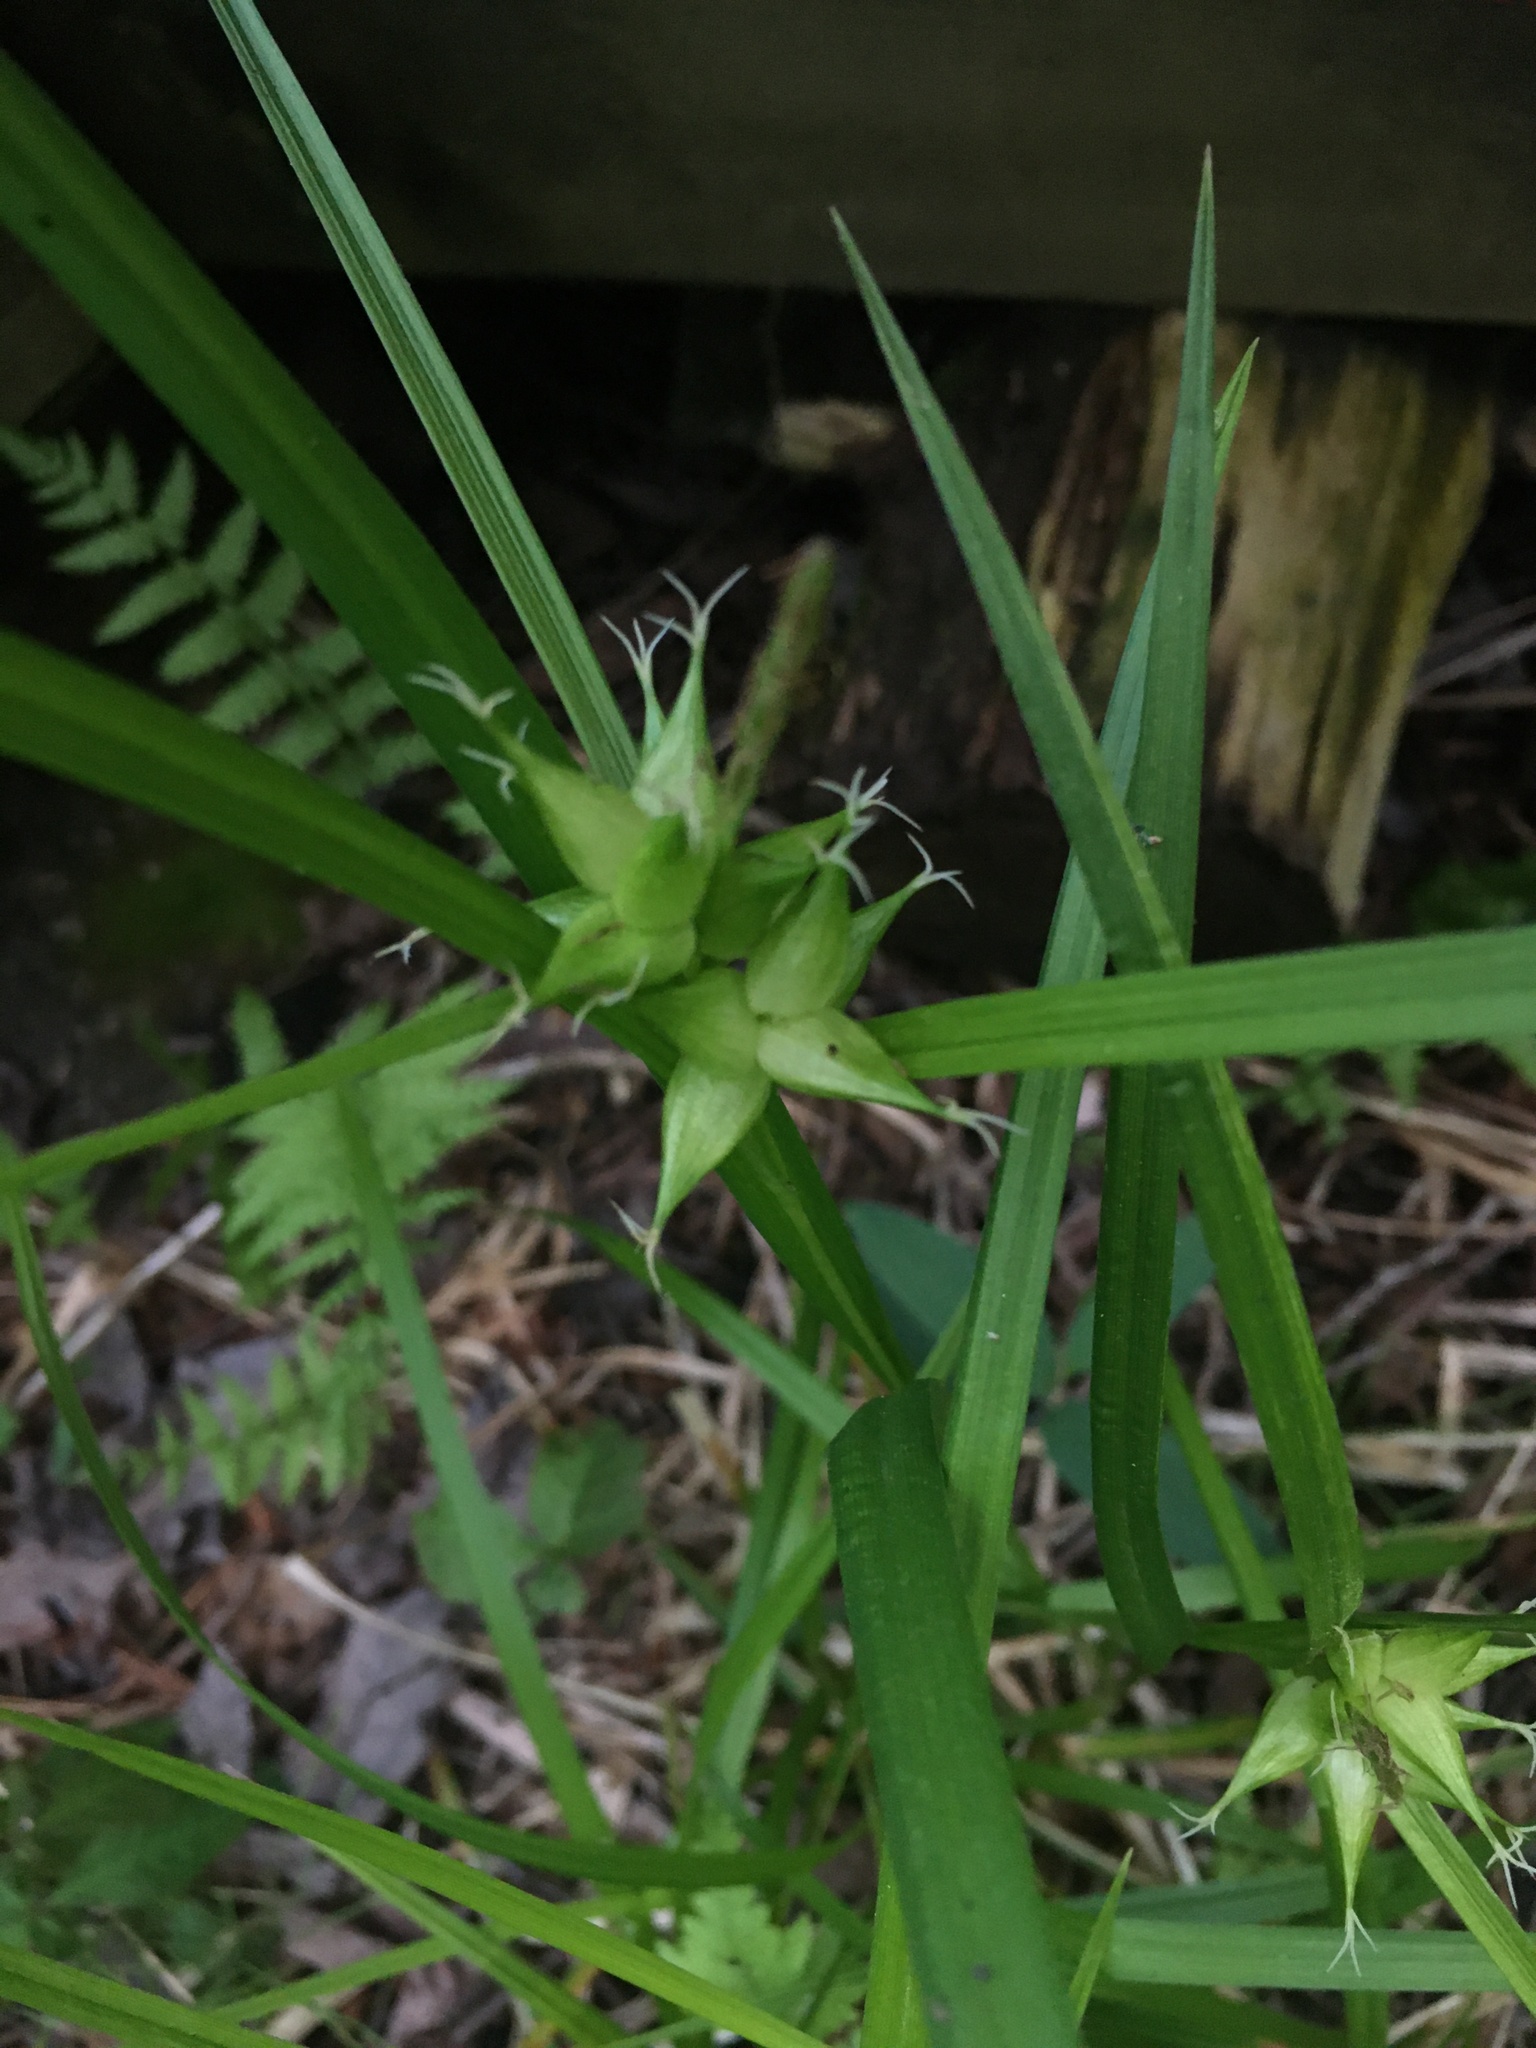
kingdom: Plantae
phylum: Tracheophyta
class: Liliopsida
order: Poales
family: Cyperaceae
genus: Carex
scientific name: Carex intumescens
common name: Greater bladder sedge
